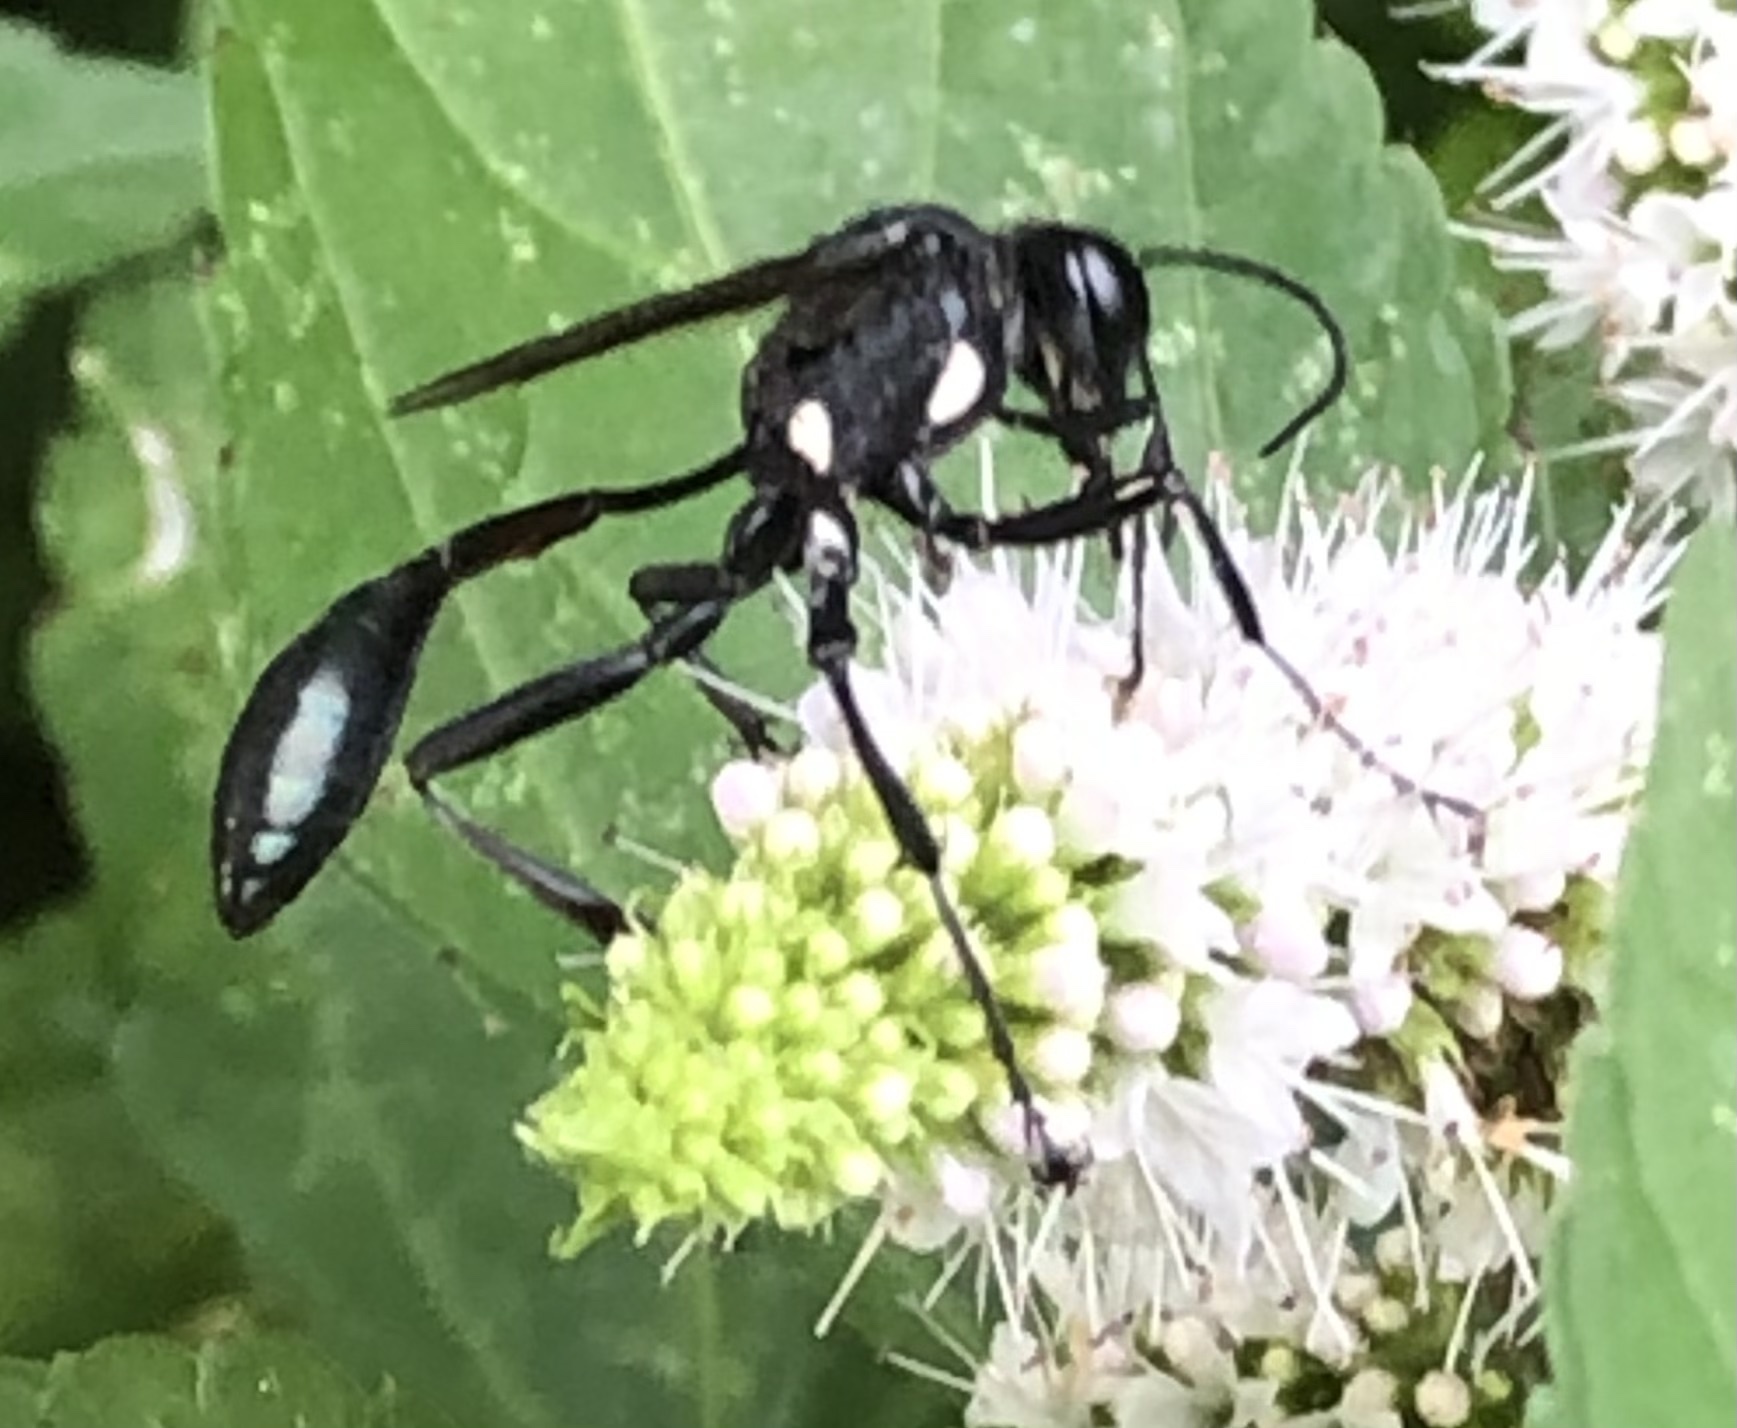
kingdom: Animalia
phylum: Arthropoda
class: Insecta
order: Hymenoptera
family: Sphecidae
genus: Eremnophila
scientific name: Eremnophila aureonotata
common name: Gold-marked thread-waisted wasp
